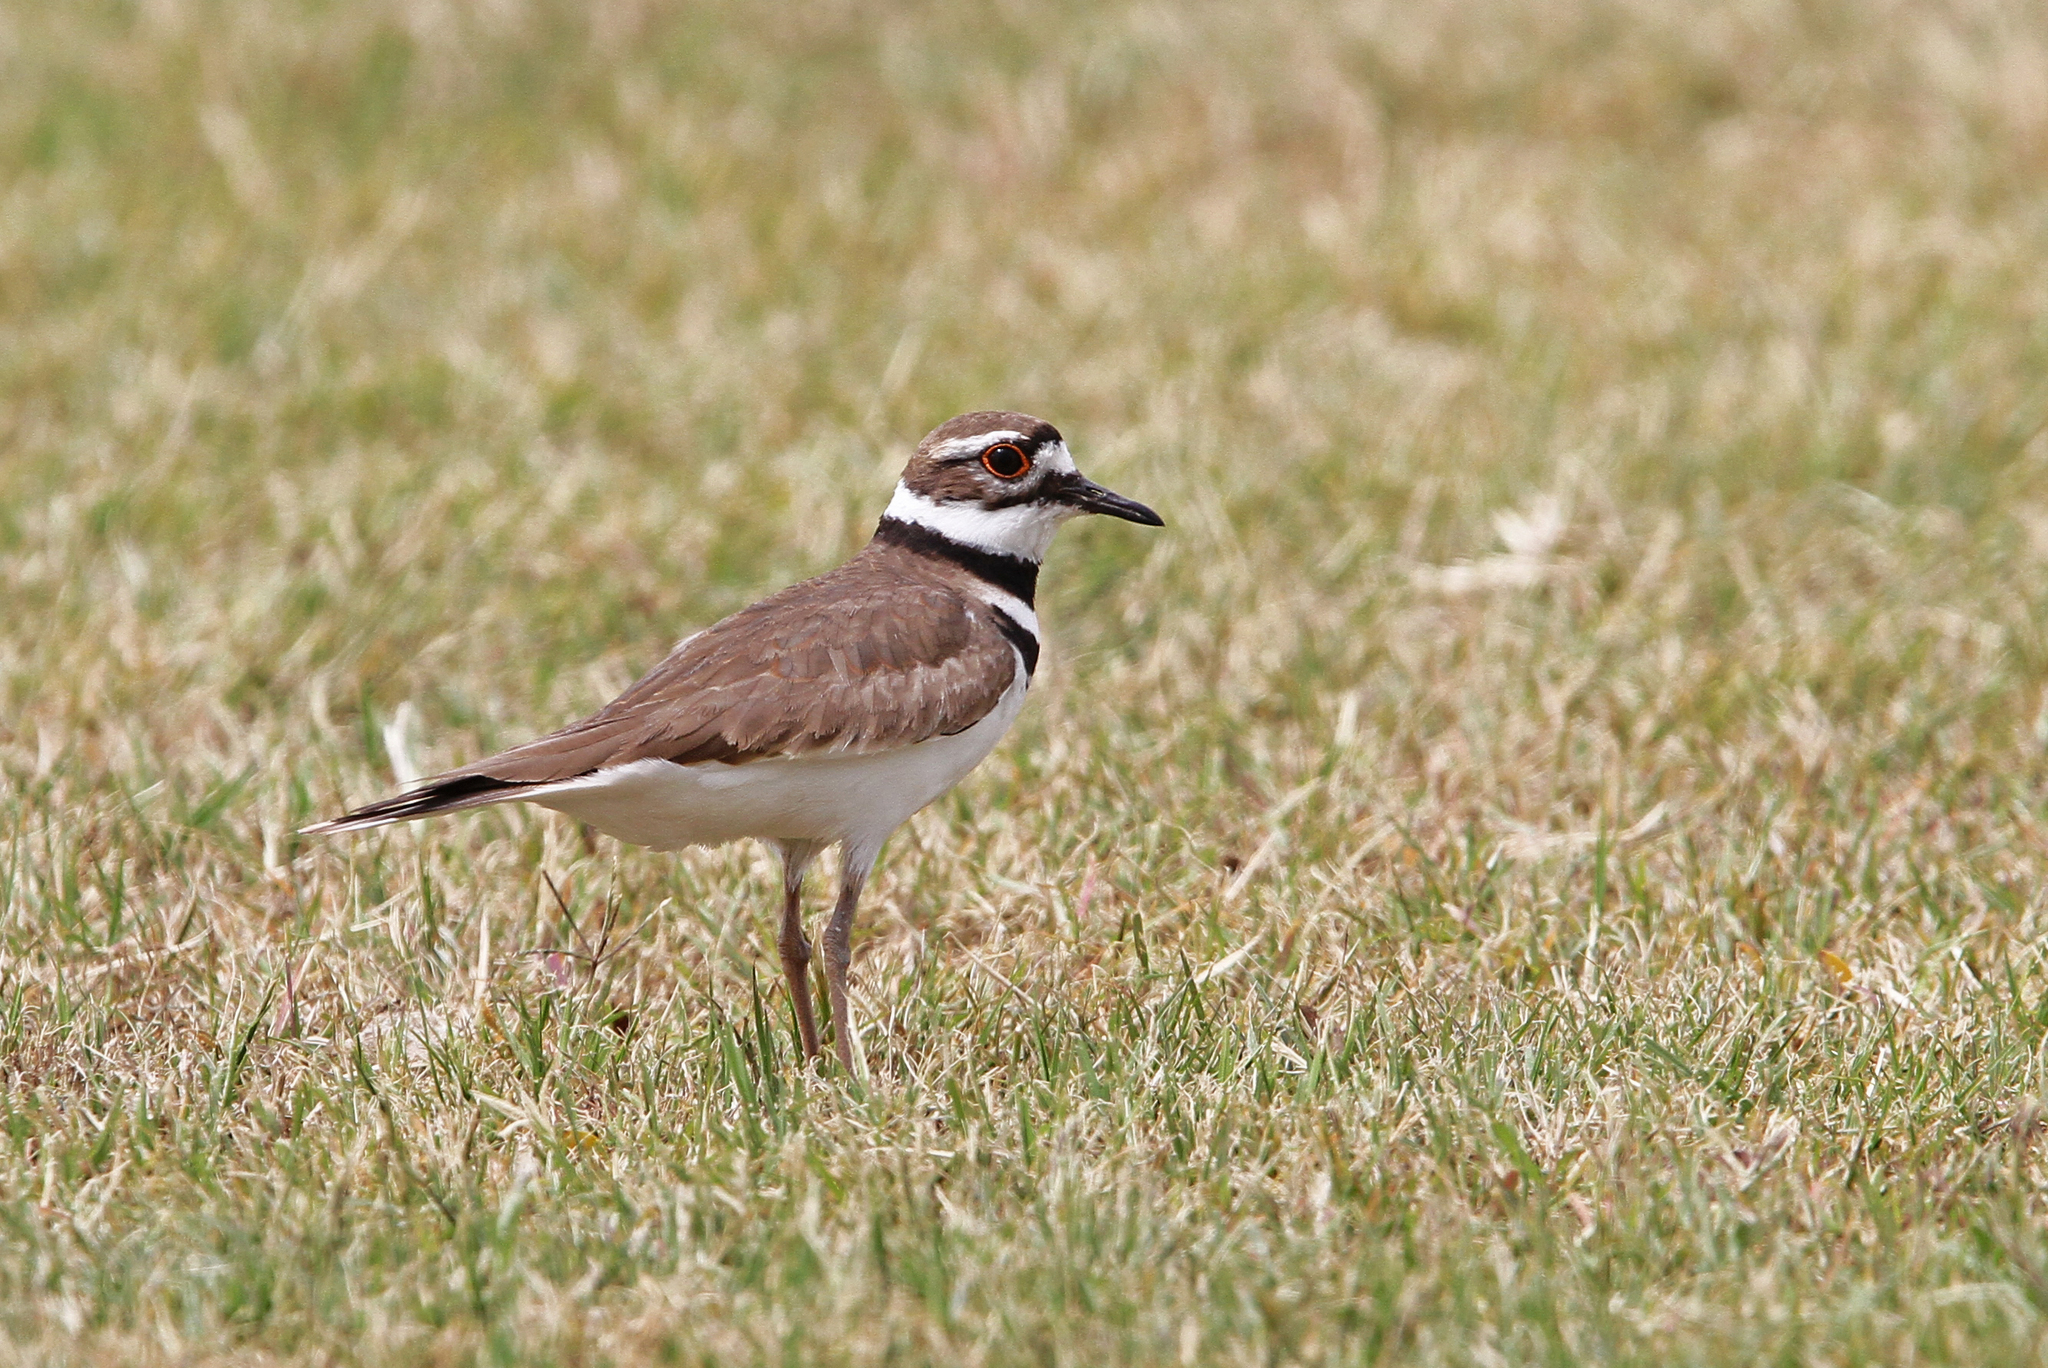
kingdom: Animalia
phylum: Chordata
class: Aves
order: Charadriiformes
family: Charadriidae
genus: Charadrius
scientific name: Charadrius vociferus
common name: Killdeer
